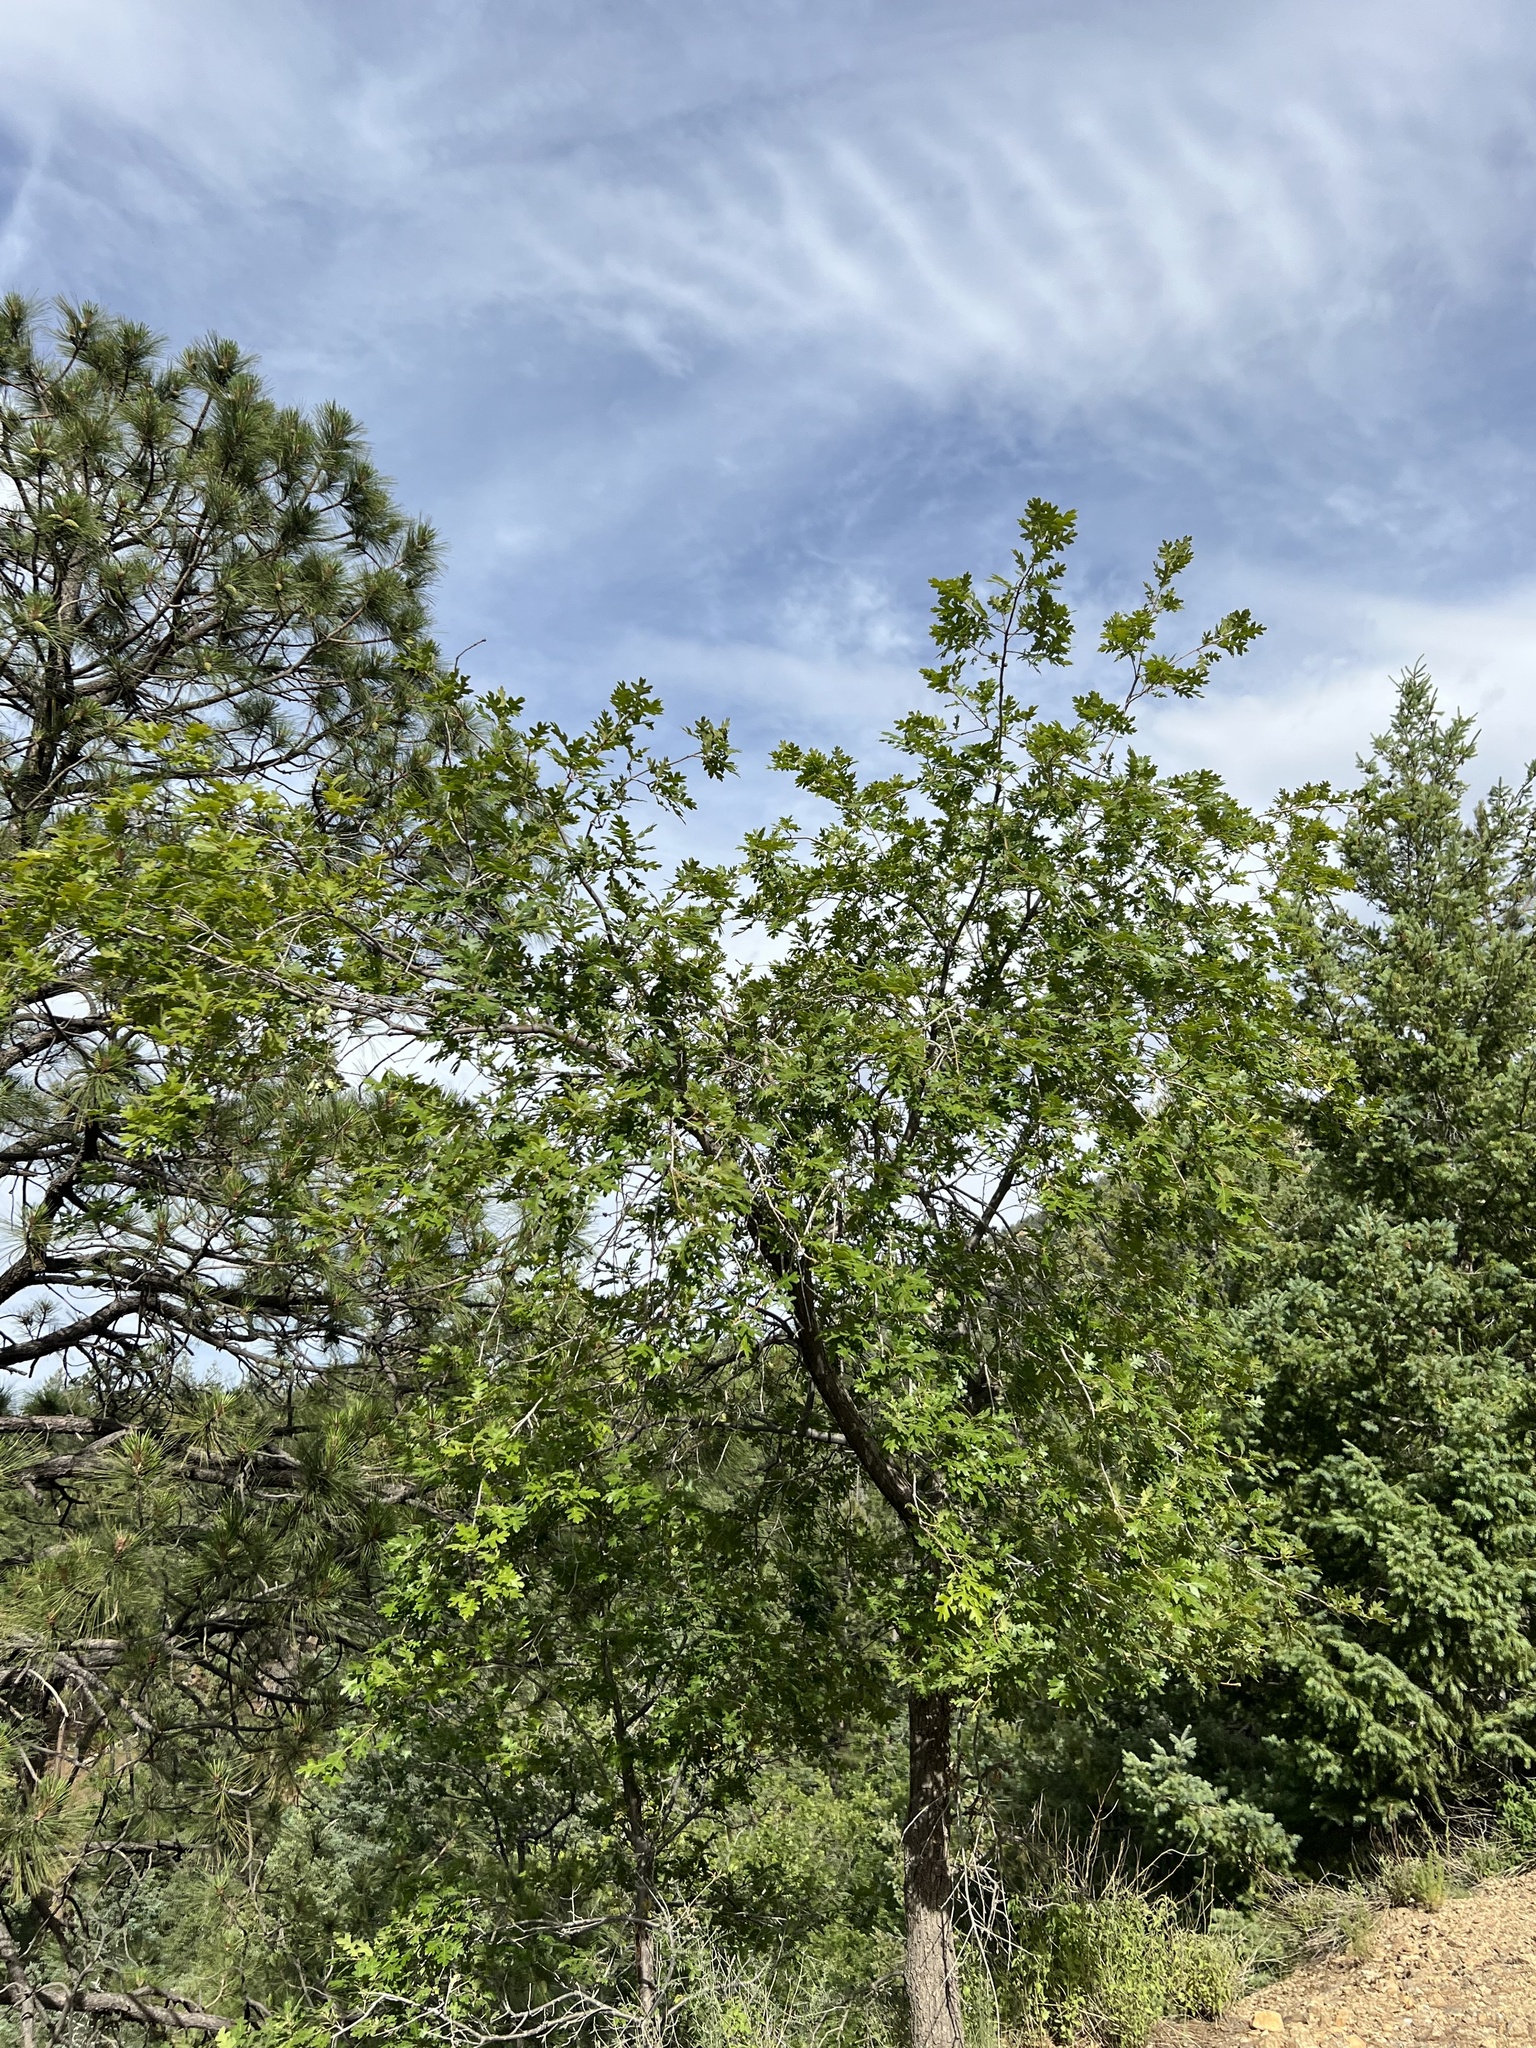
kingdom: Plantae
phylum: Tracheophyta
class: Magnoliopsida
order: Fagales
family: Fagaceae
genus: Quercus
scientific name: Quercus gambelii
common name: Gambel oak
